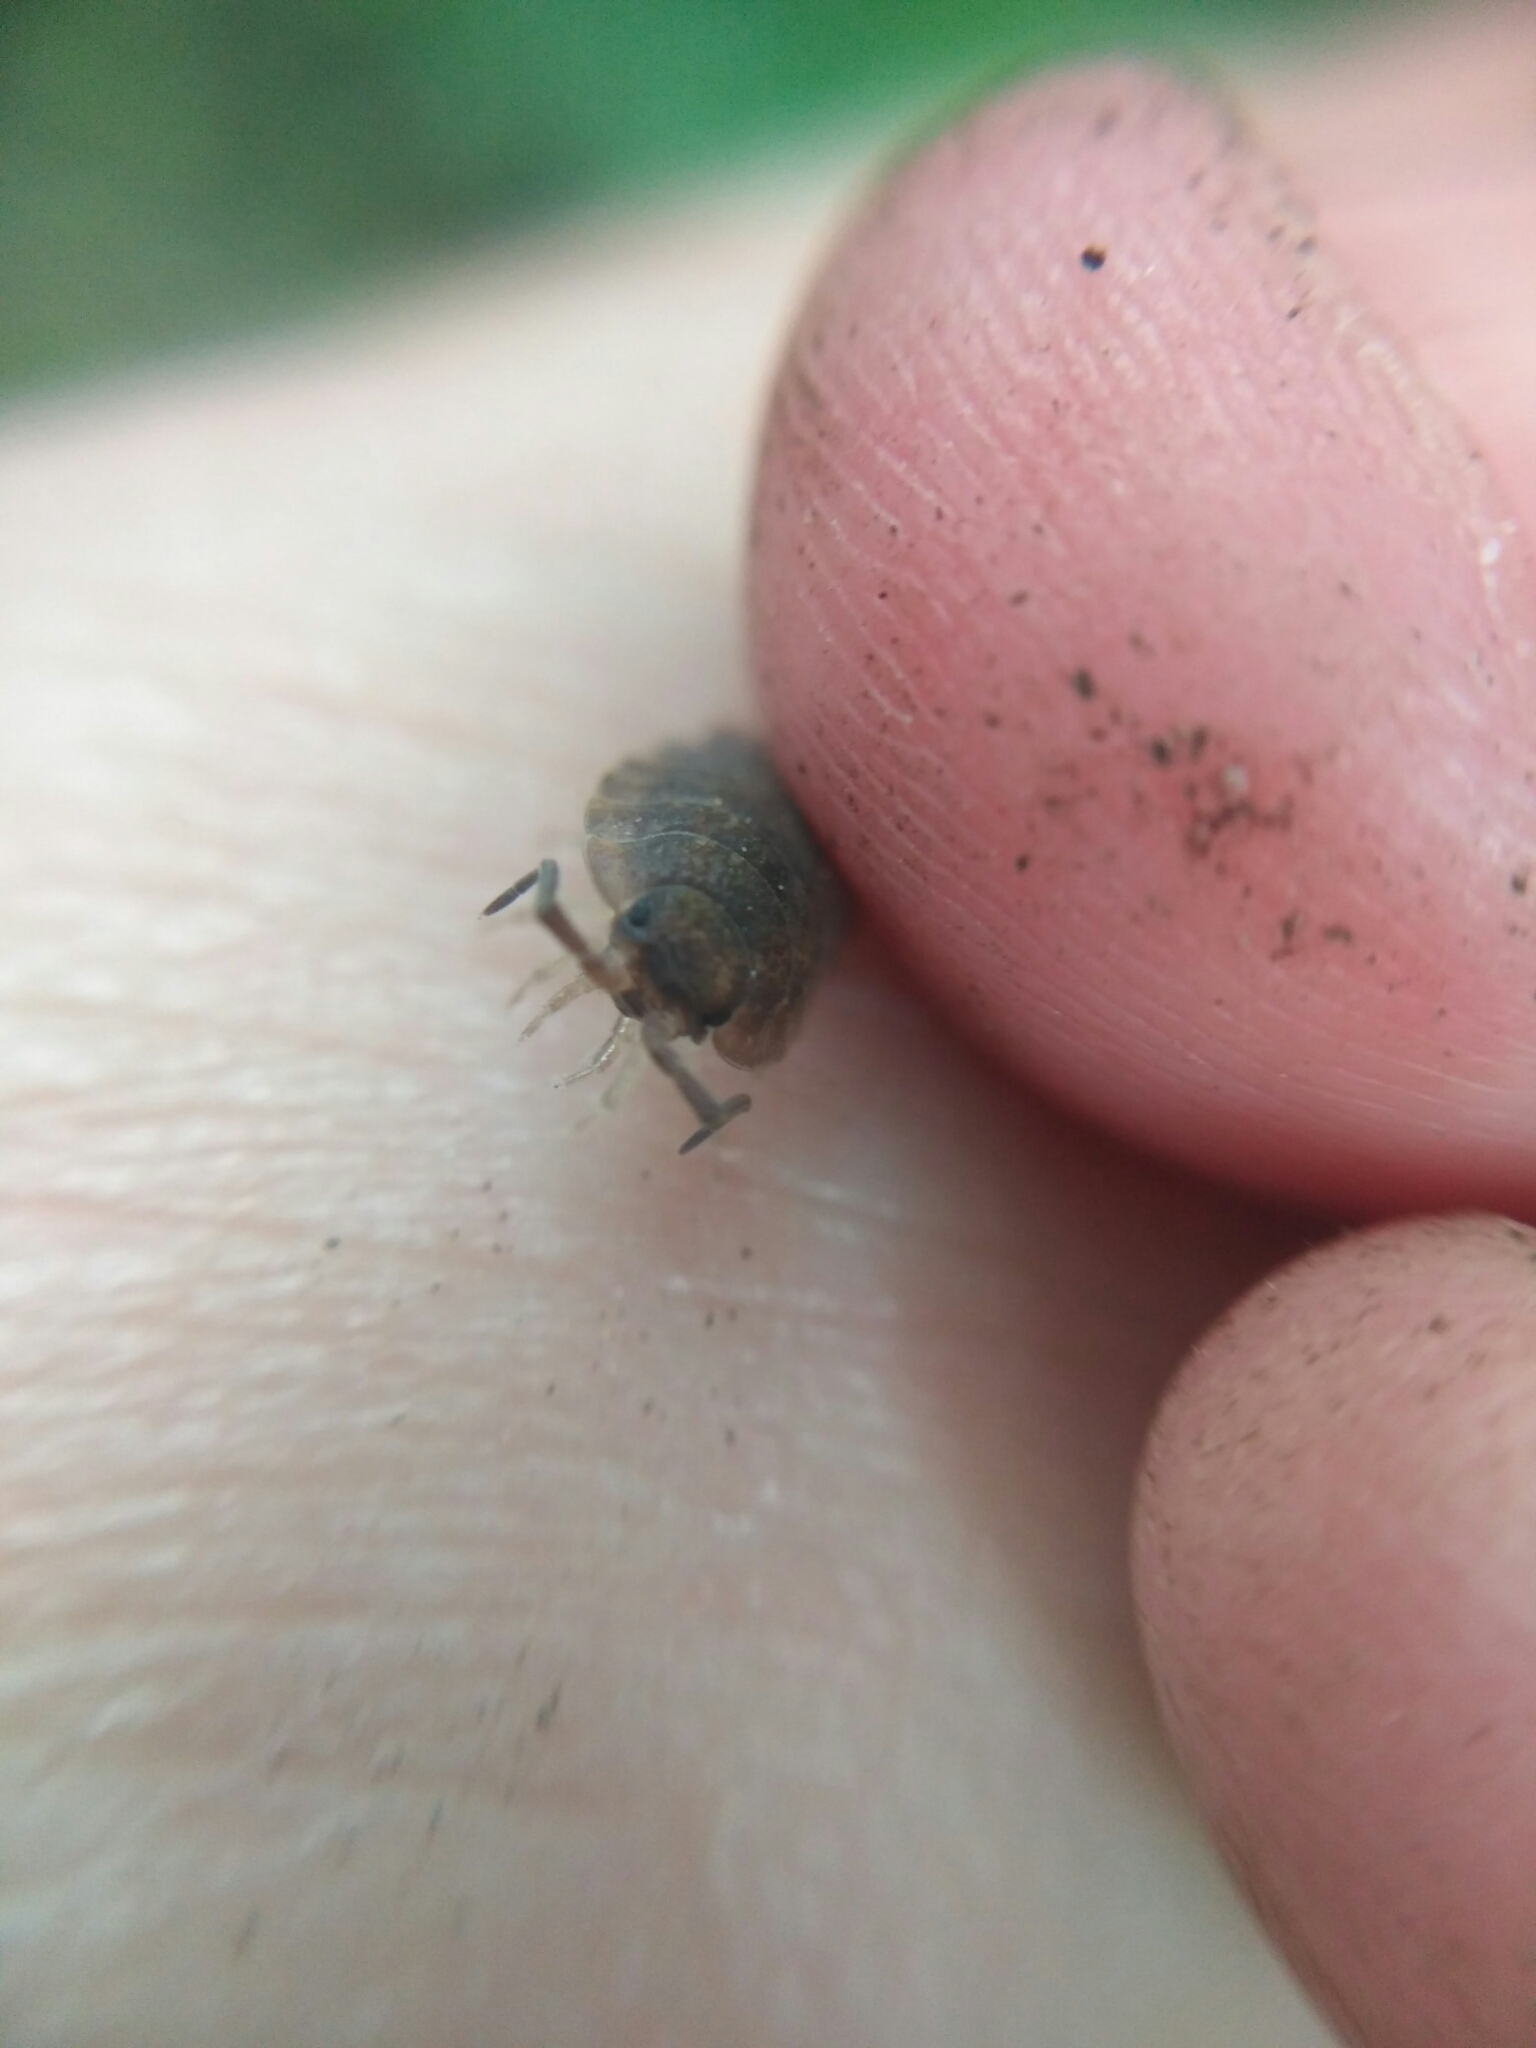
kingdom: Animalia
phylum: Arthropoda
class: Malacostraca
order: Isopoda
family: Porcellionidae
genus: Porcellio
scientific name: Porcellio scaber
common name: Common rough woodlouse
